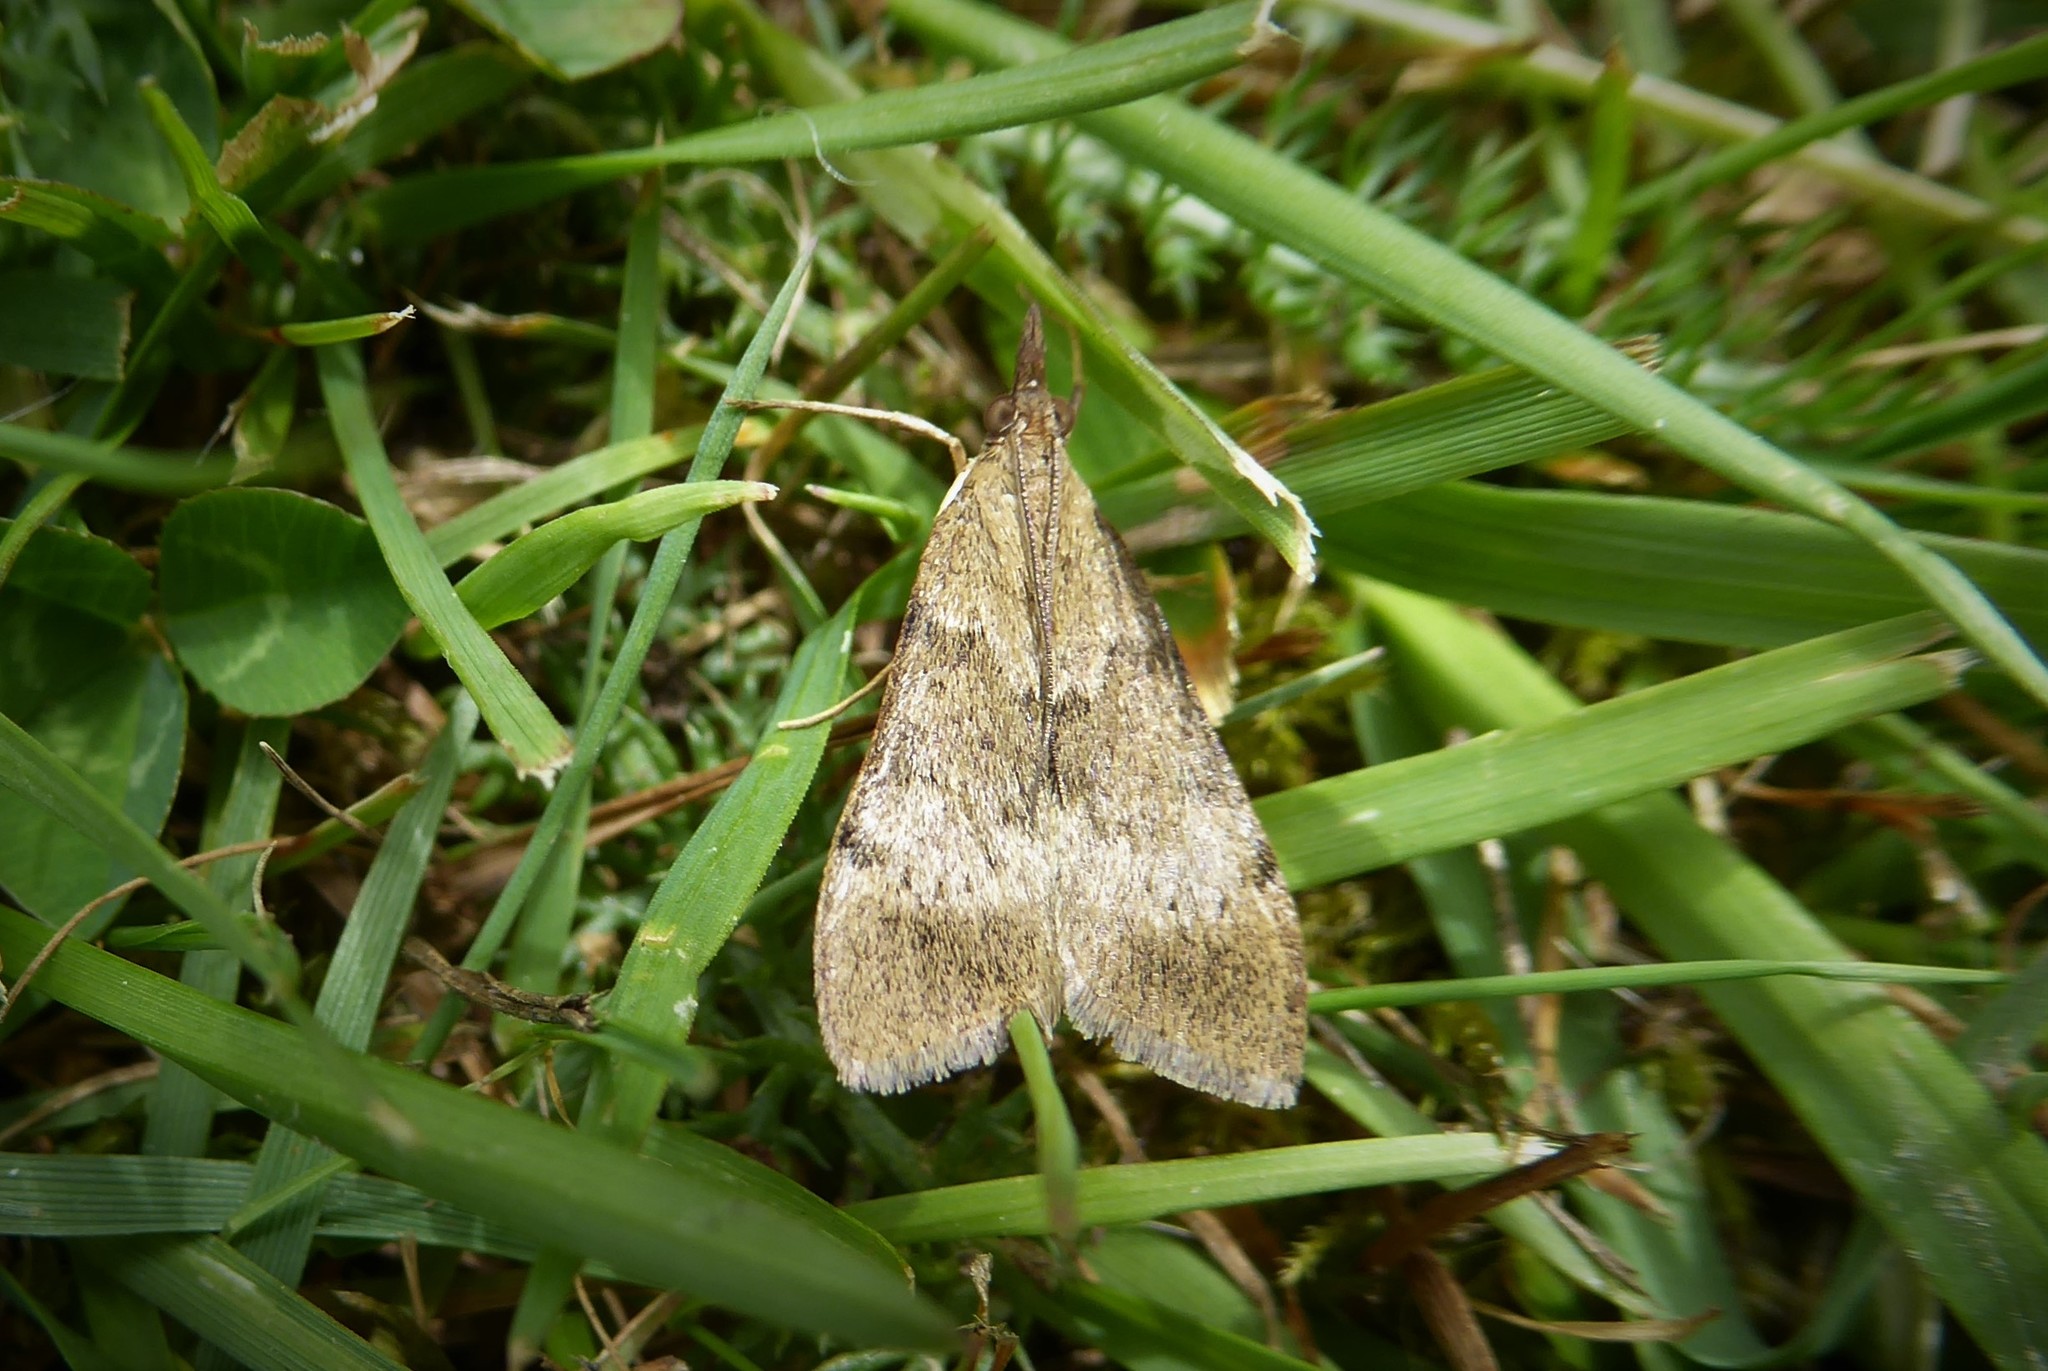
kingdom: Animalia
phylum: Arthropoda
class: Insecta
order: Lepidoptera
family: Crambidae
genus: Uresiphita
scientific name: Uresiphita
